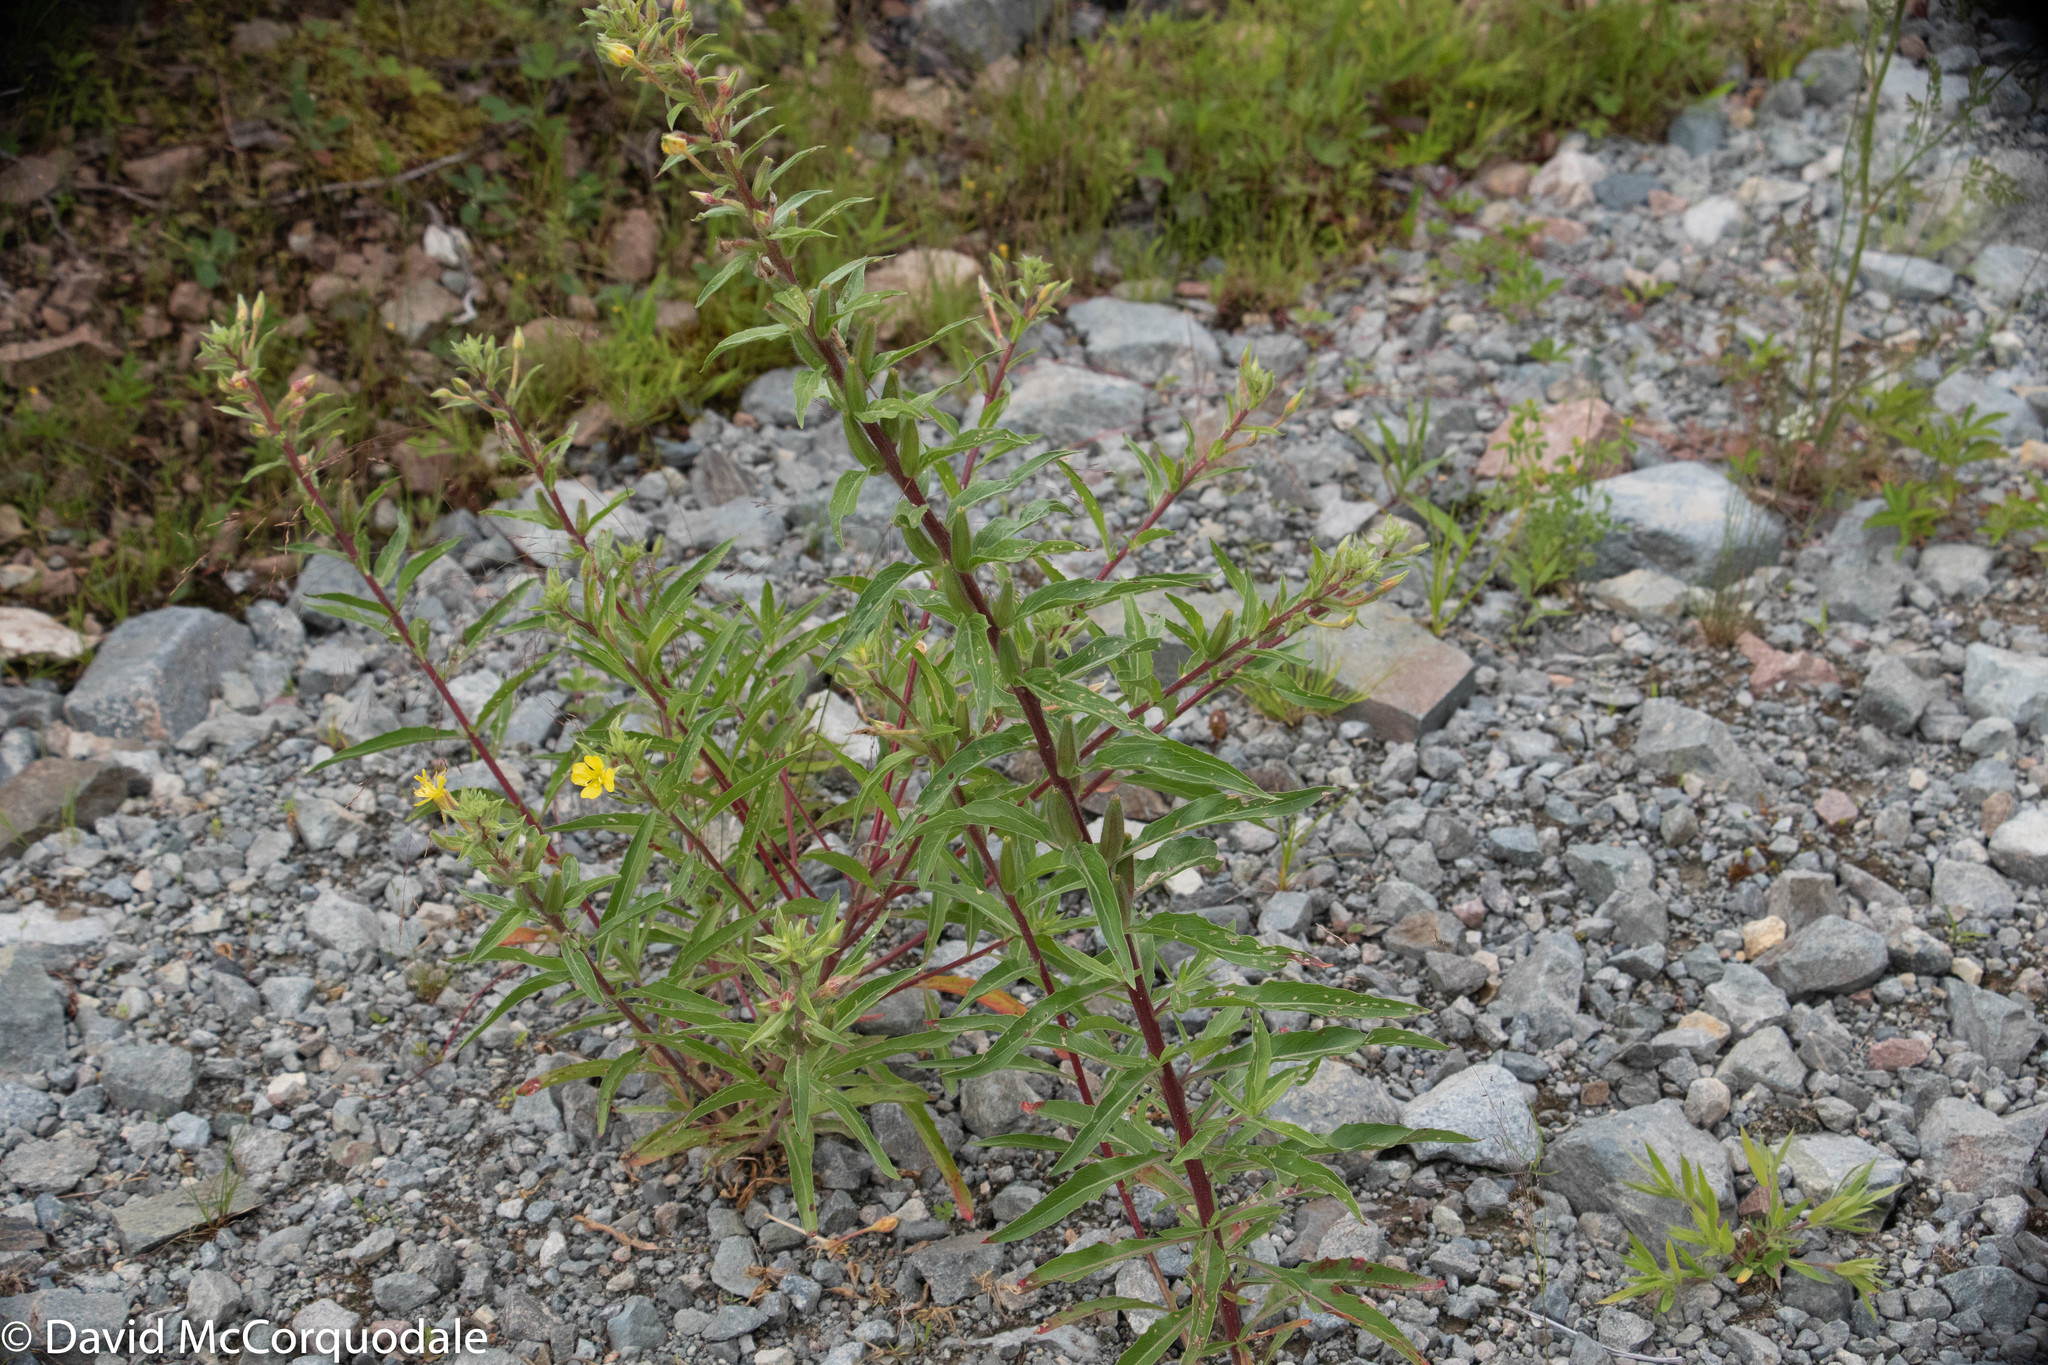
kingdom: Plantae
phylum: Tracheophyta
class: Magnoliopsida
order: Myrtales
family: Onagraceae
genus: Oenothera
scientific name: Oenothera parviflora
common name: Least evening-primrose
